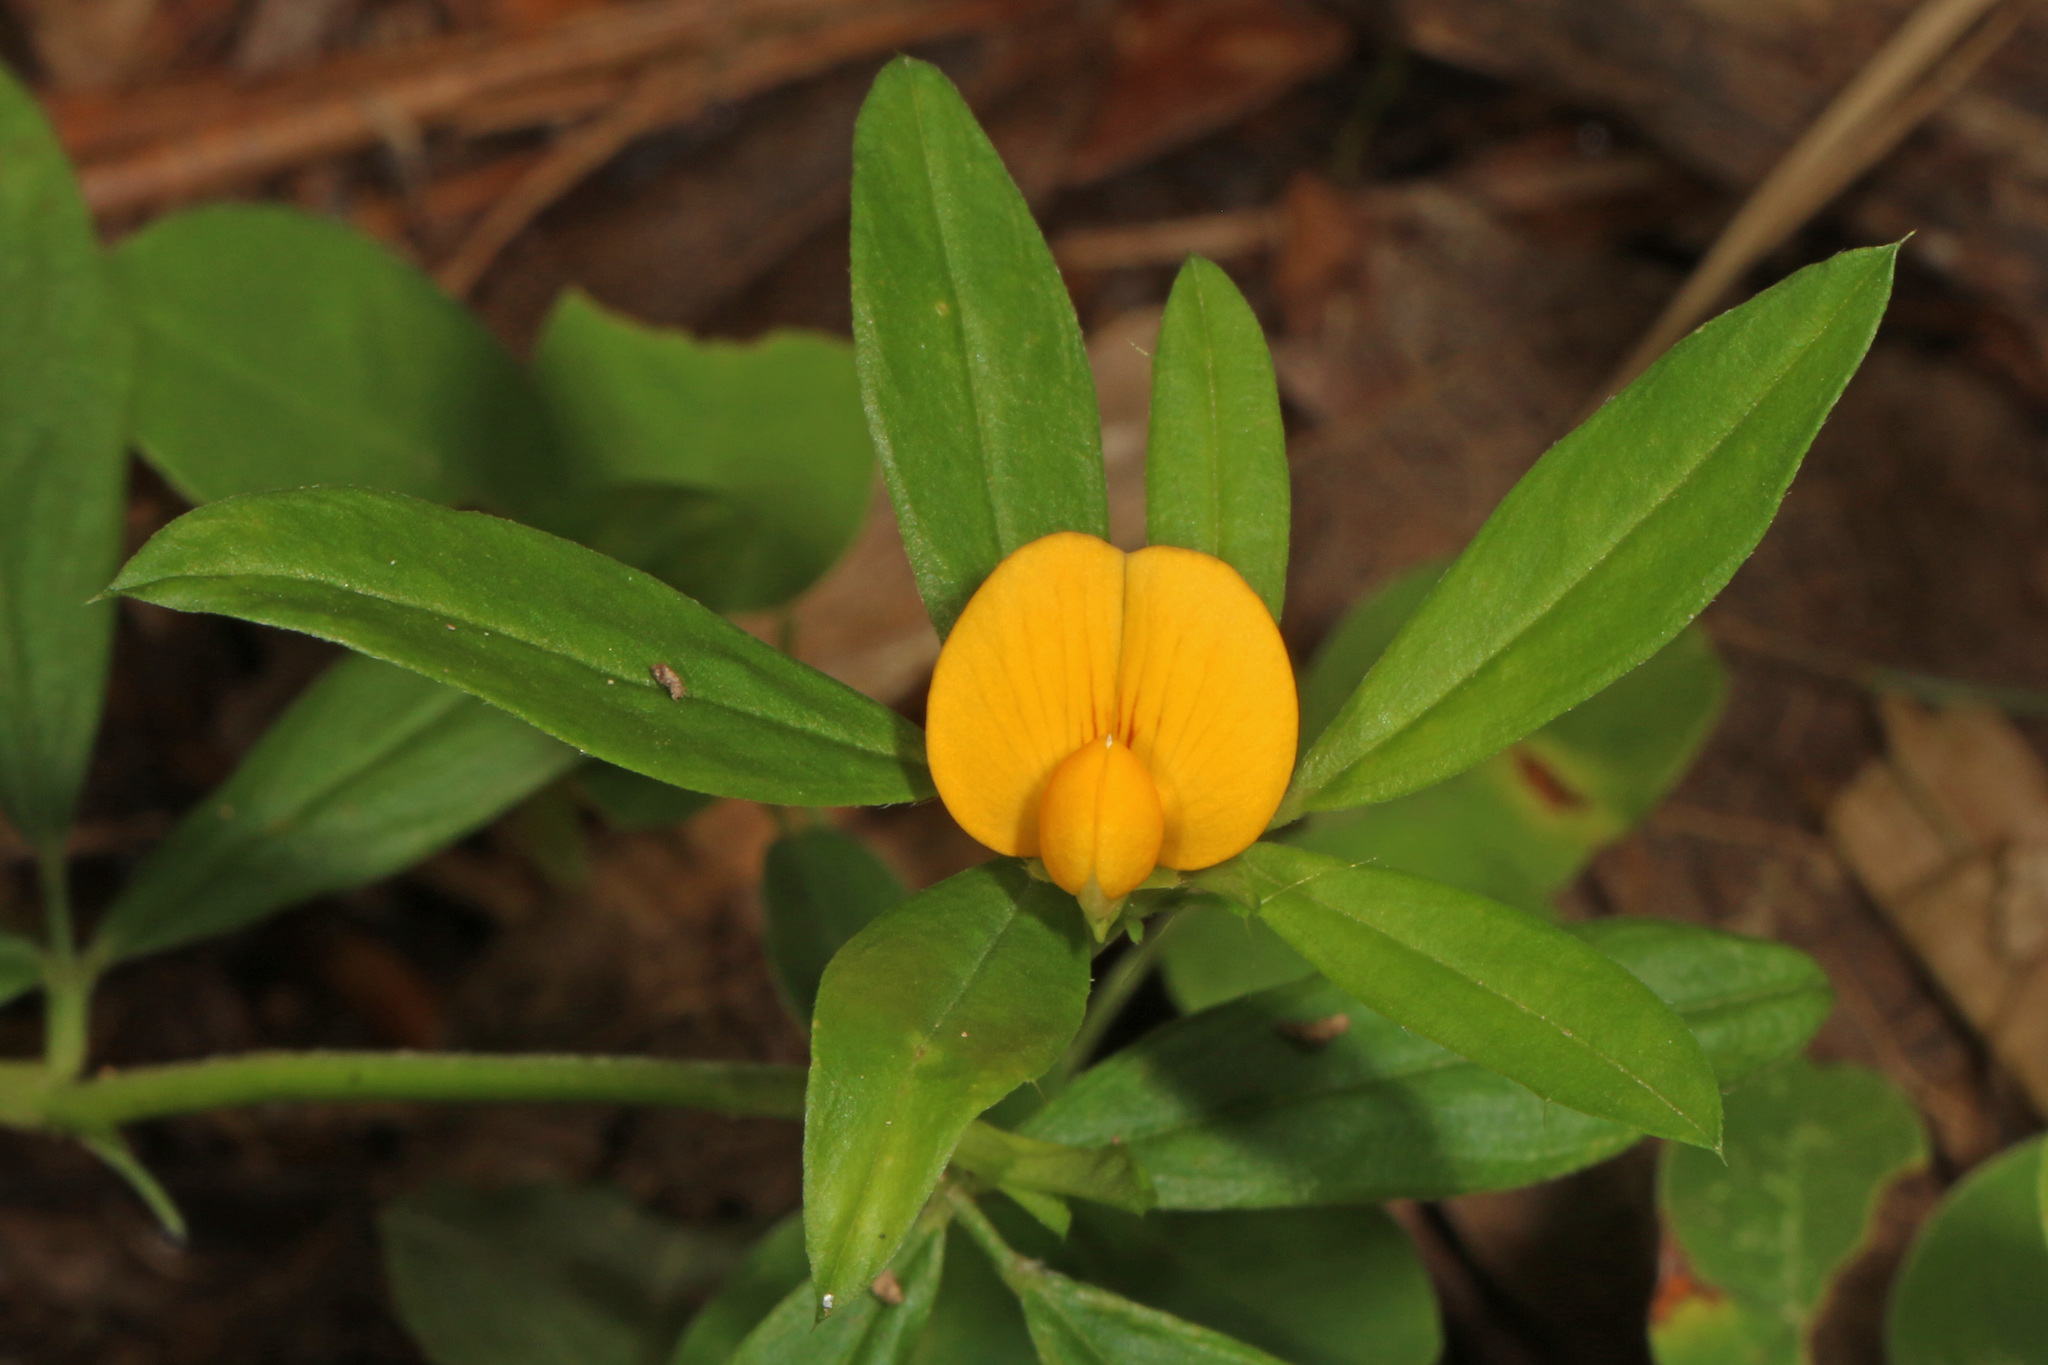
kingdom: Plantae
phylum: Tracheophyta
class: Magnoliopsida
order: Fabales
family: Fabaceae
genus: Stylosanthes
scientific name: Stylosanthes biflora
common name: Two-flower pencil-flower
